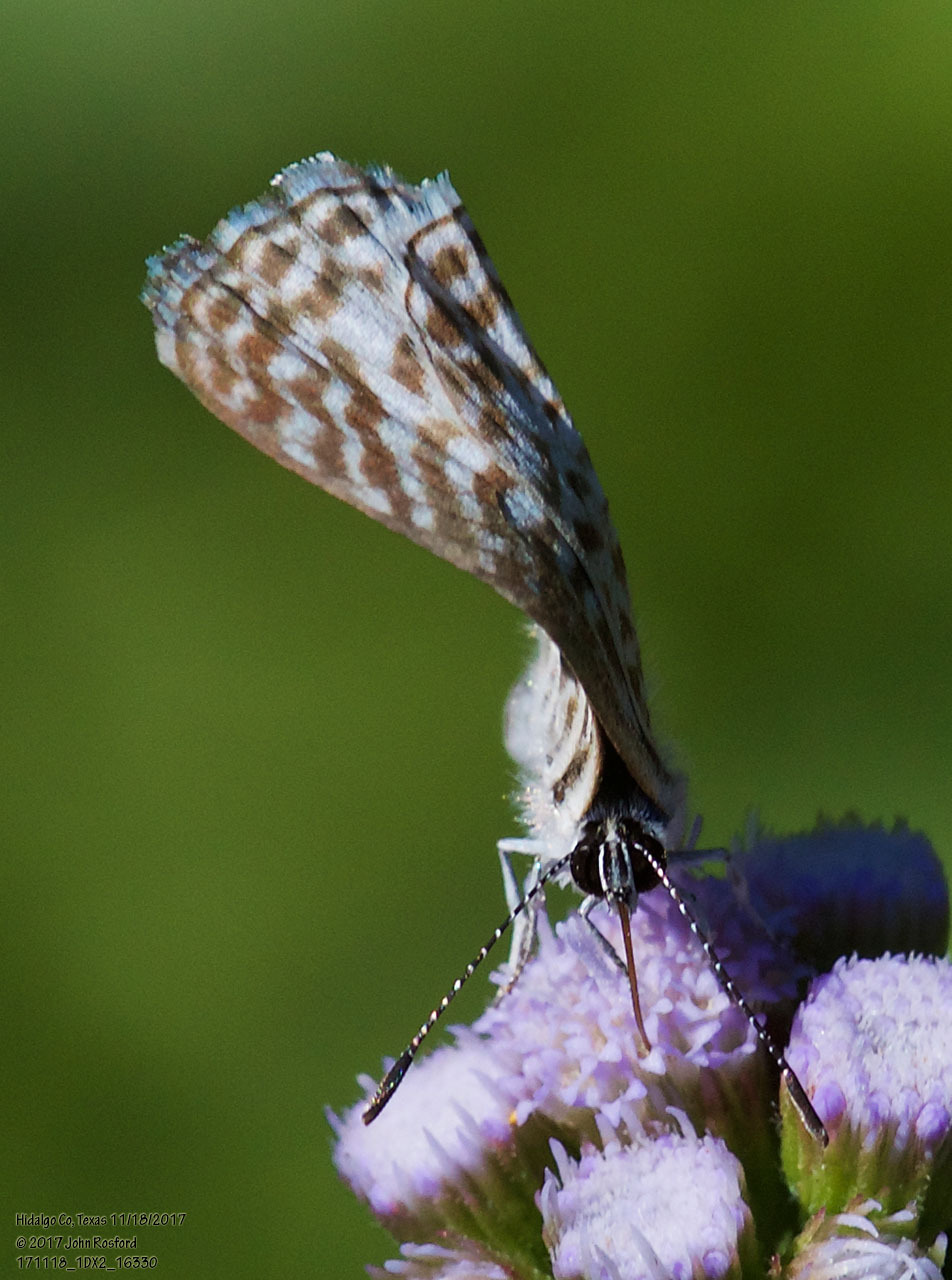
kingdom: Animalia
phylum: Arthropoda
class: Insecta
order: Lepidoptera
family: Lycaenidae
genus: Leptotes
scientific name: Leptotes cassius
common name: Cassius blue
